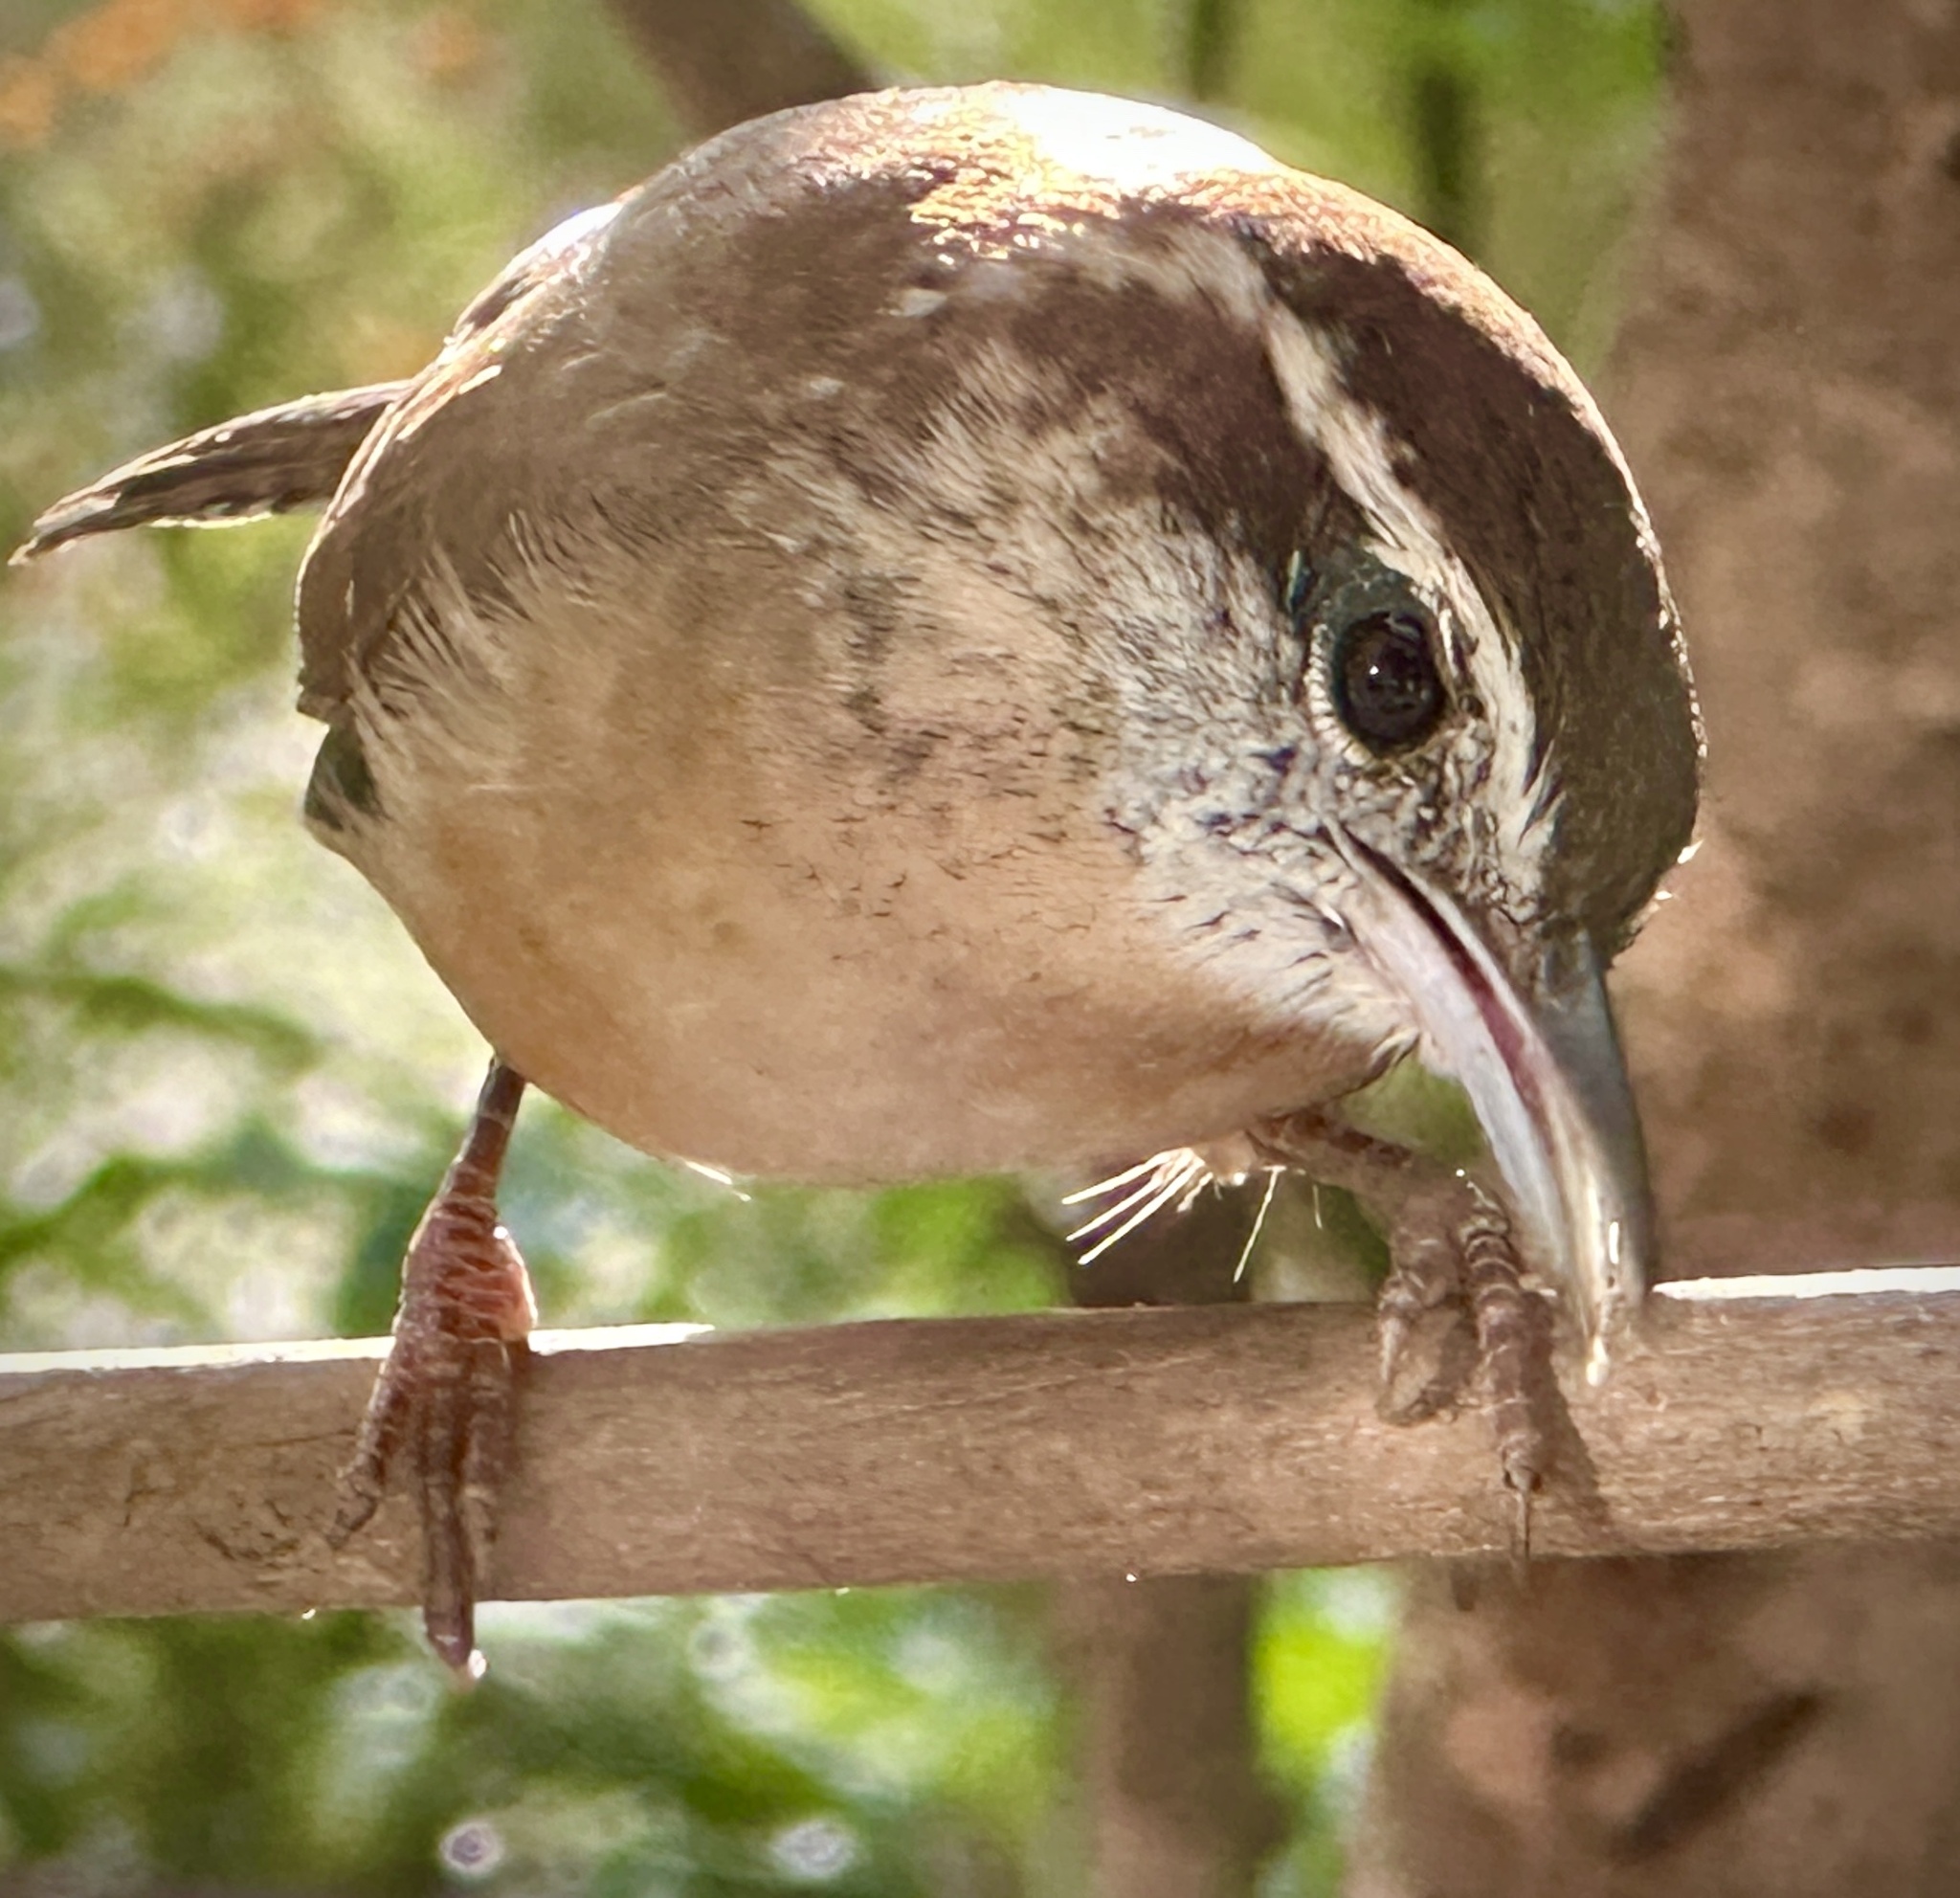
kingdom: Animalia
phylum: Chordata
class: Aves
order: Passeriformes
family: Troglodytidae
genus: Thryothorus
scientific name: Thryothorus ludovicianus
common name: Carolina wren
